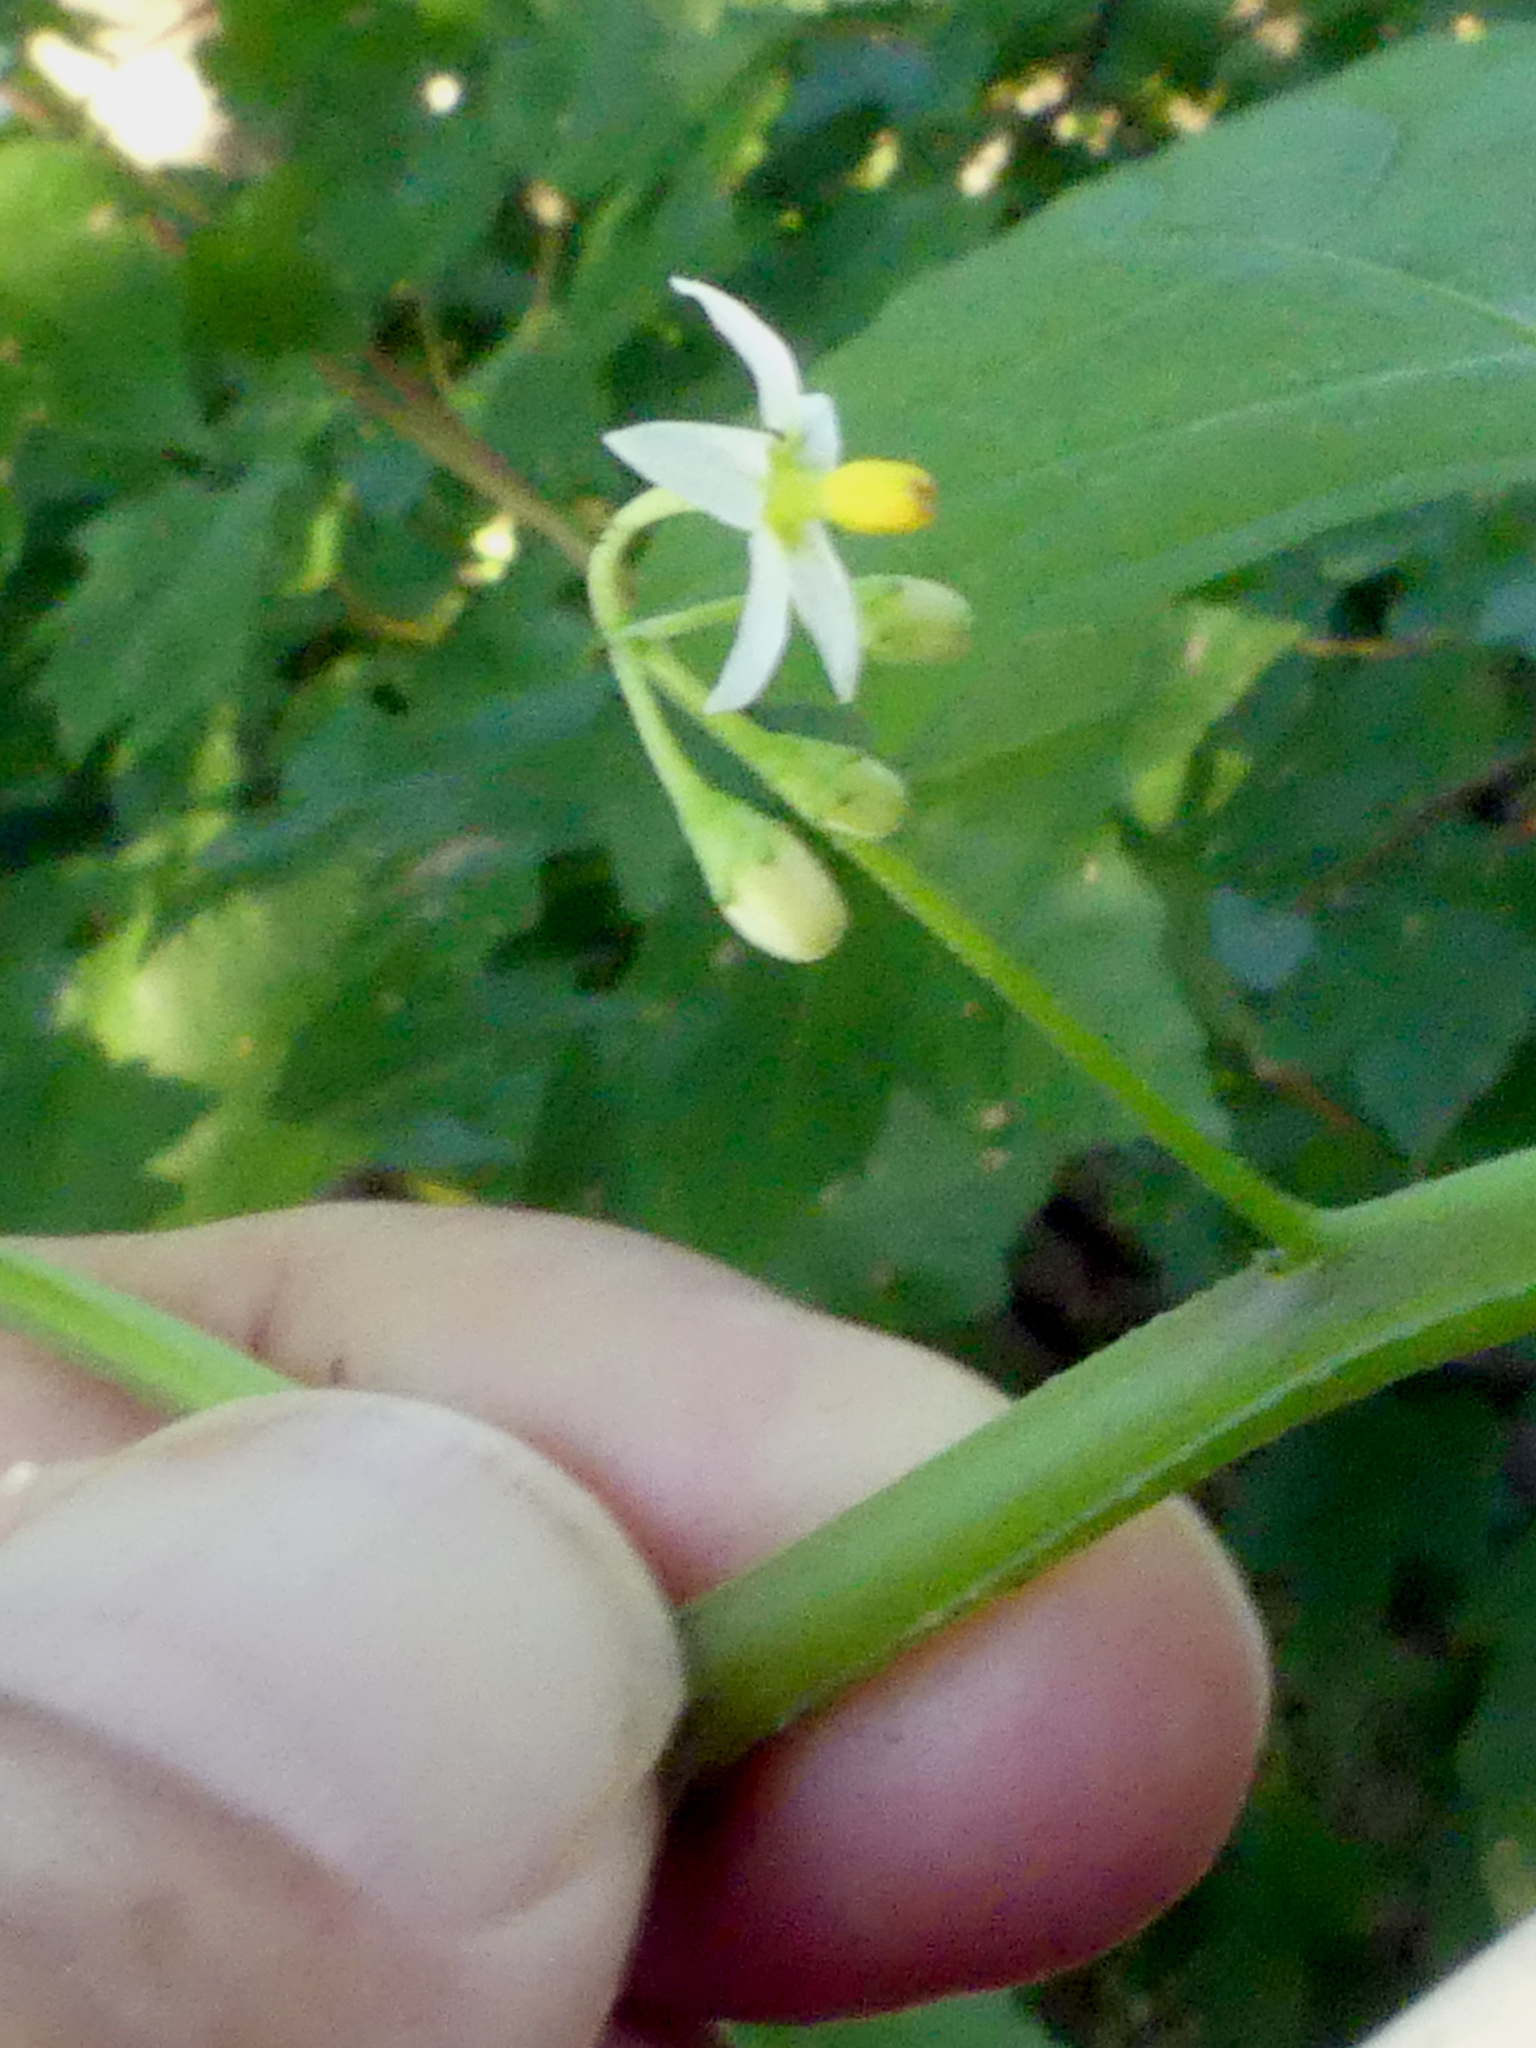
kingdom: Plantae
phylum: Tracheophyta
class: Magnoliopsida
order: Solanales
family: Solanaceae
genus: Solanum
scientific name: Solanum nigrum
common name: Black nightshade
